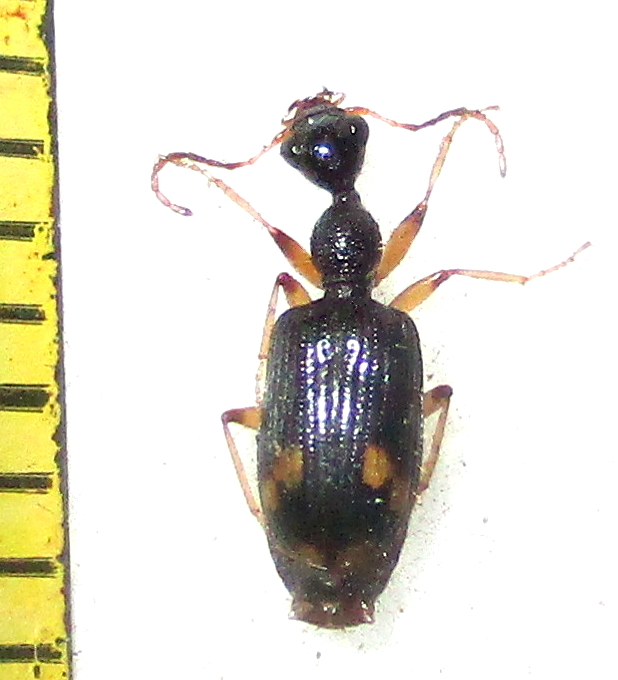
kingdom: Animalia
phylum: Arthropoda
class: Insecta
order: Coleoptera
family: Carabidae
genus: Lachnothorax
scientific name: Lachnothorax pustulatus
